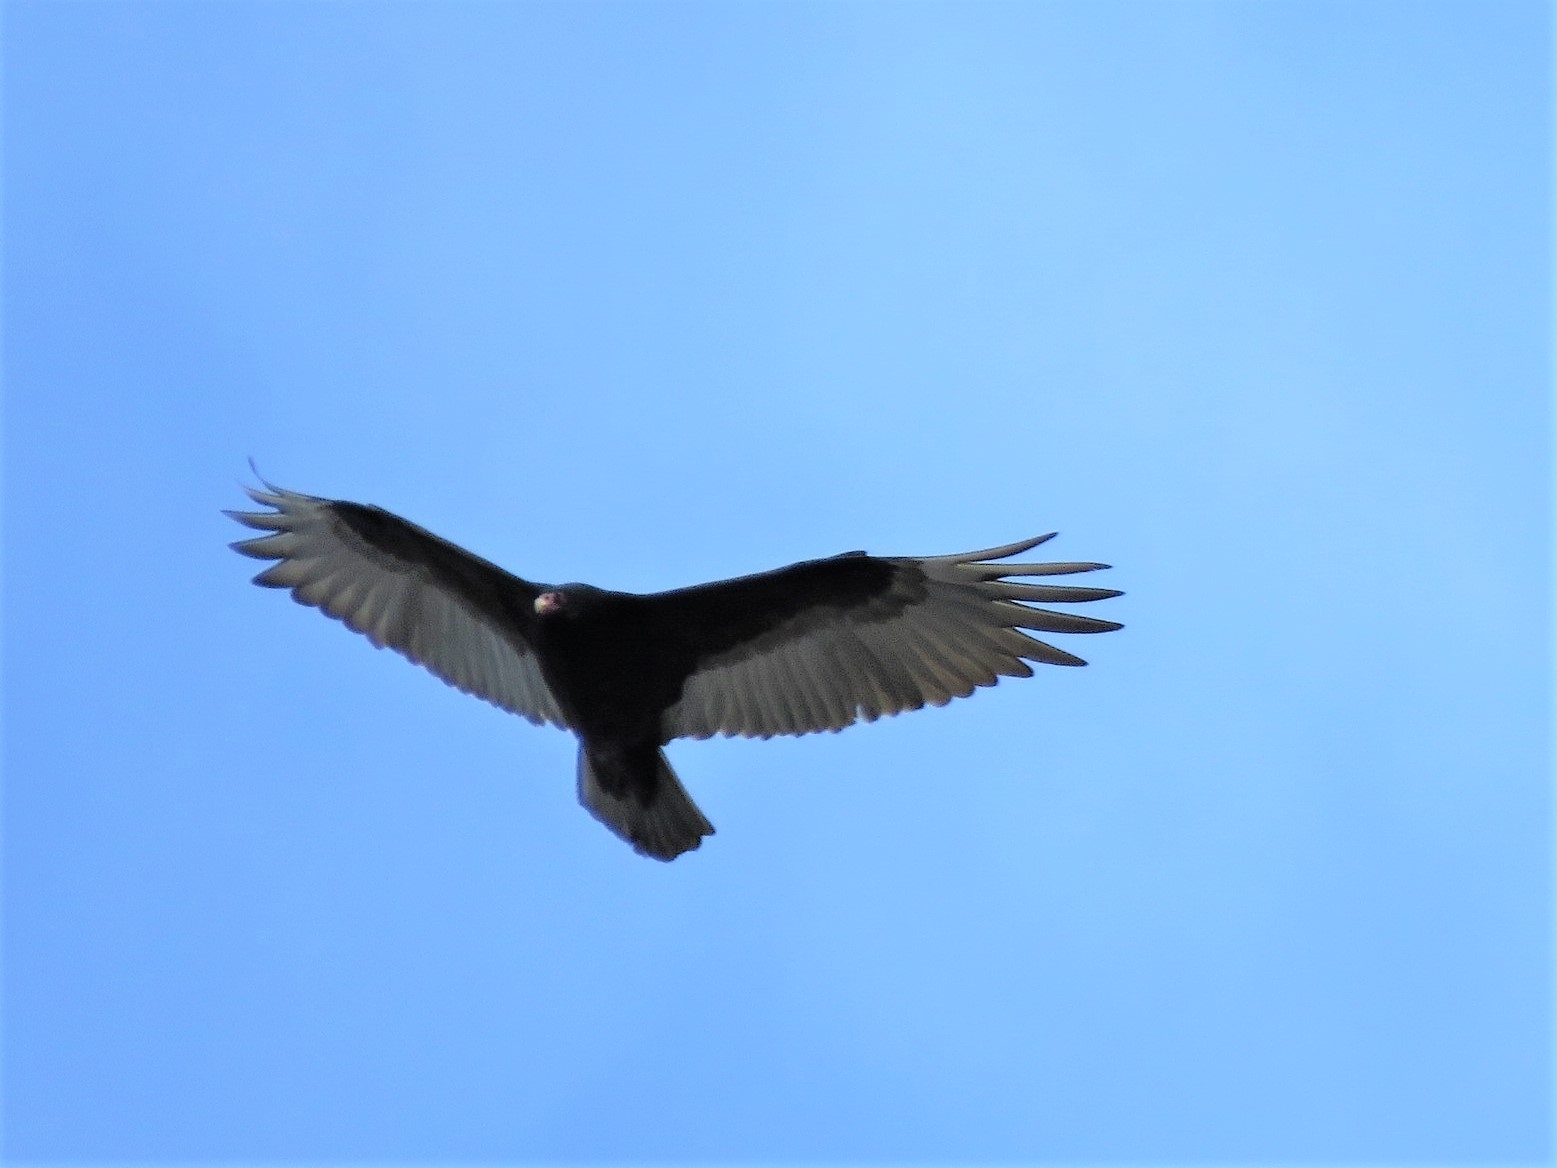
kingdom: Animalia
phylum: Chordata
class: Aves
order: Accipitriformes
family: Cathartidae
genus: Cathartes
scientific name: Cathartes aura
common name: Turkey vulture
